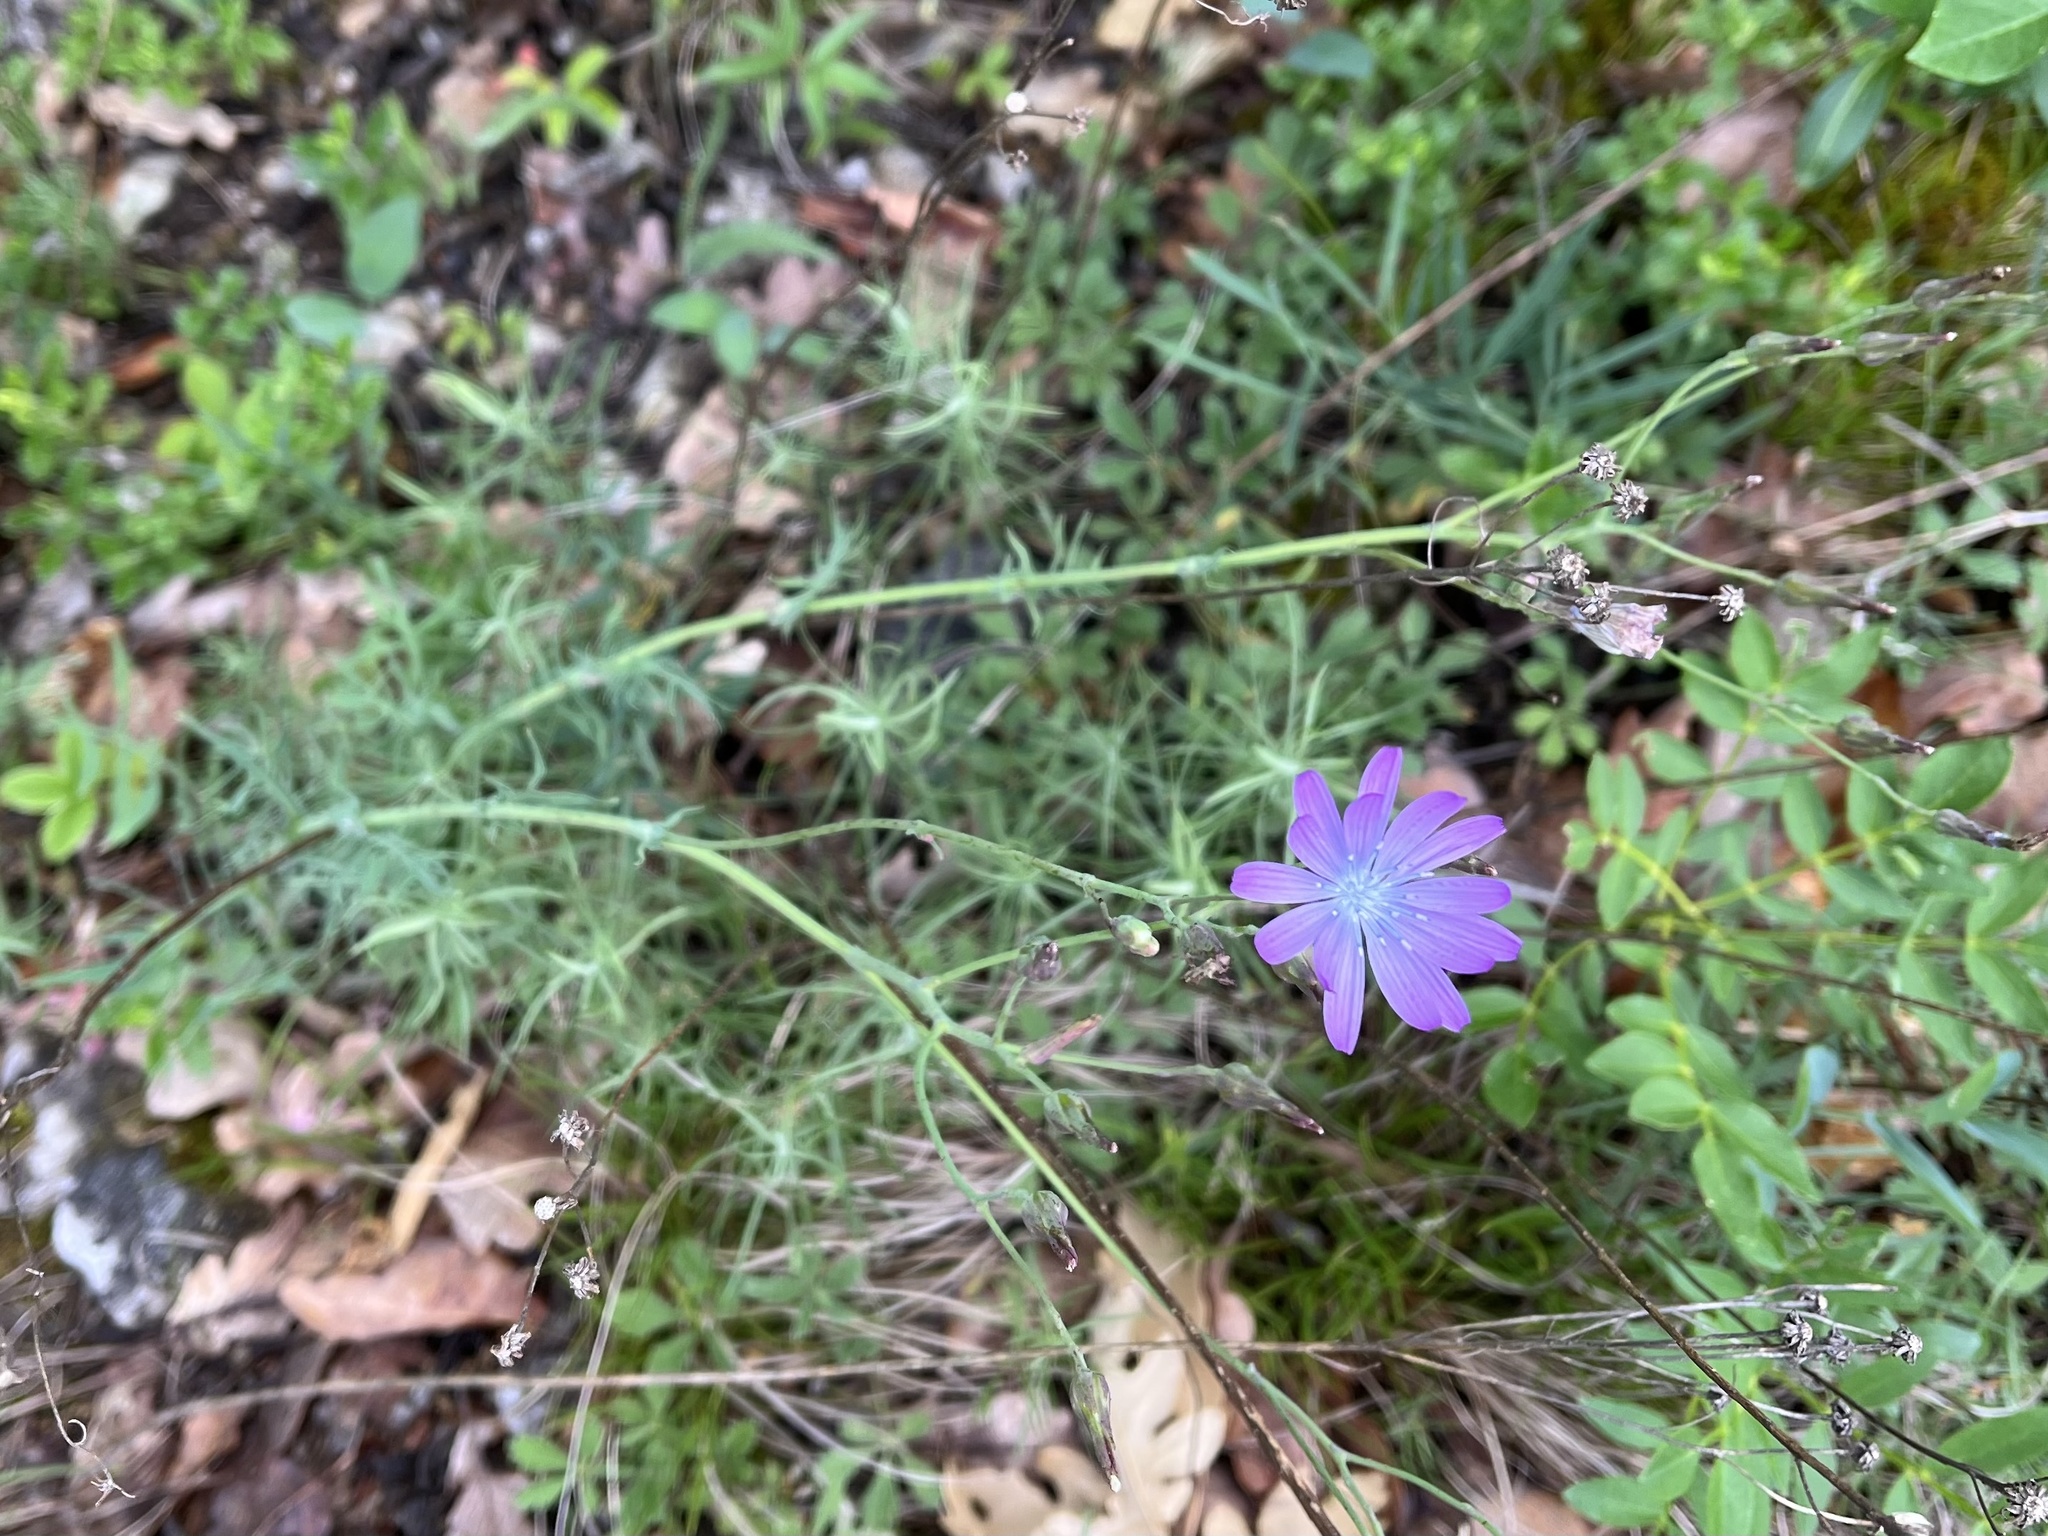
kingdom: Plantae
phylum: Tracheophyta
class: Magnoliopsida
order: Asterales
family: Asteraceae
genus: Lactuca
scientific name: Lactuca perennis
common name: Mountain lettuce
